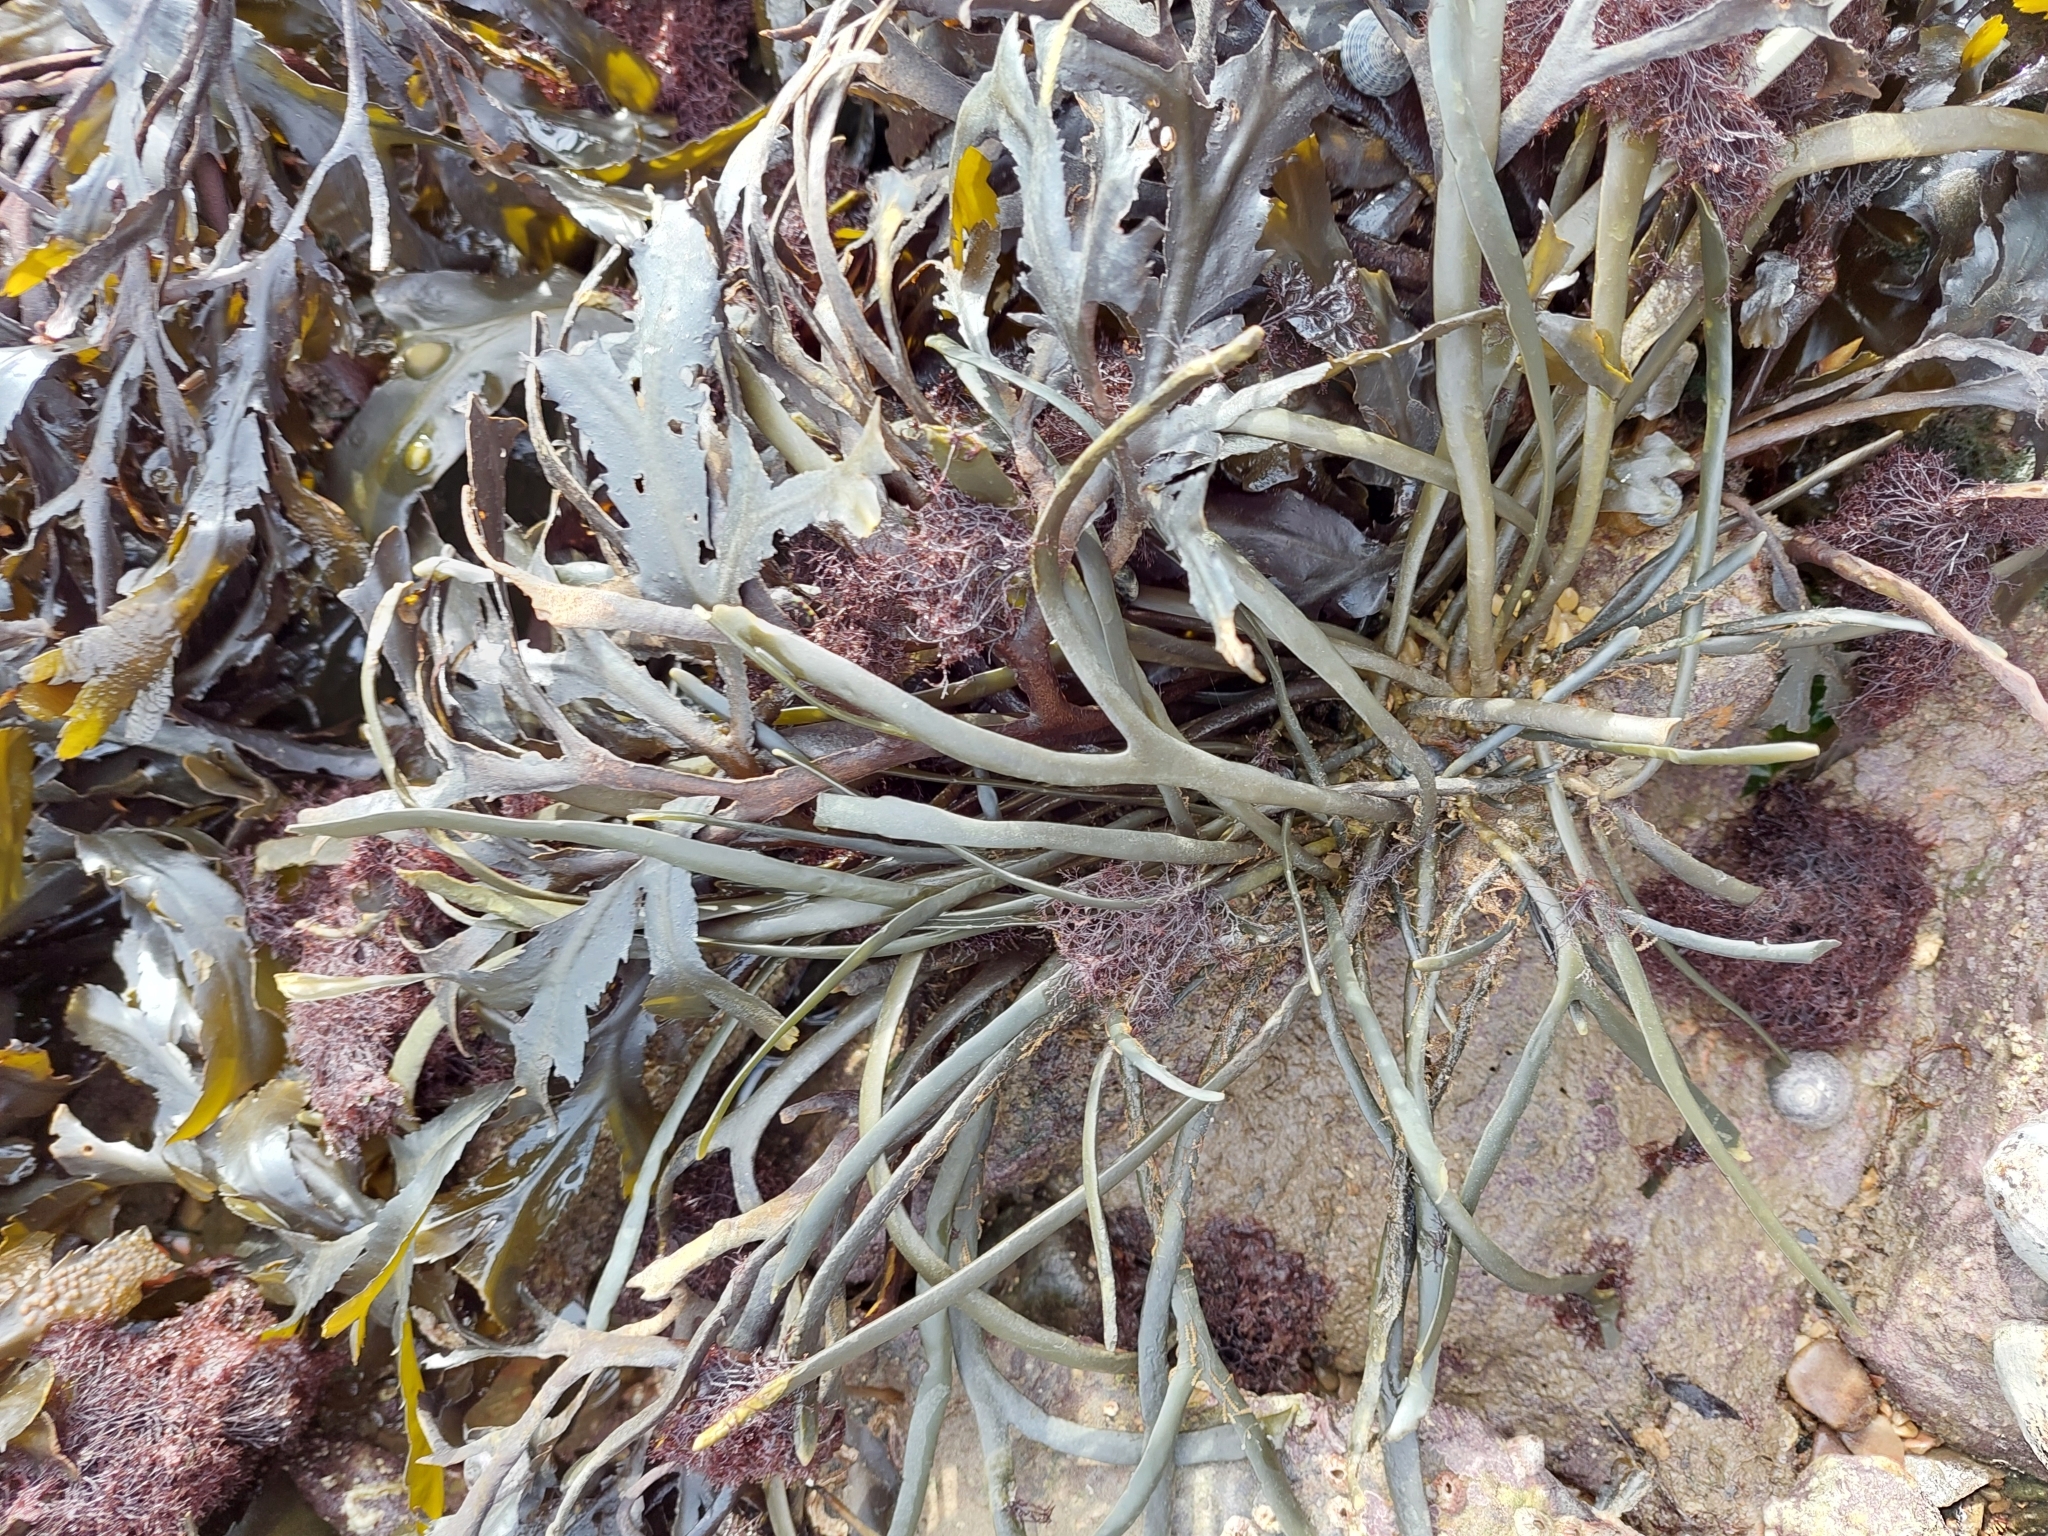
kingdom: Chromista
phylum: Ochrophyta
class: Phaeophyceae
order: Fucales
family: Fucaceae
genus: Ascophyllum
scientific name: Ascophyllum nodosum
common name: Knotted wrack
